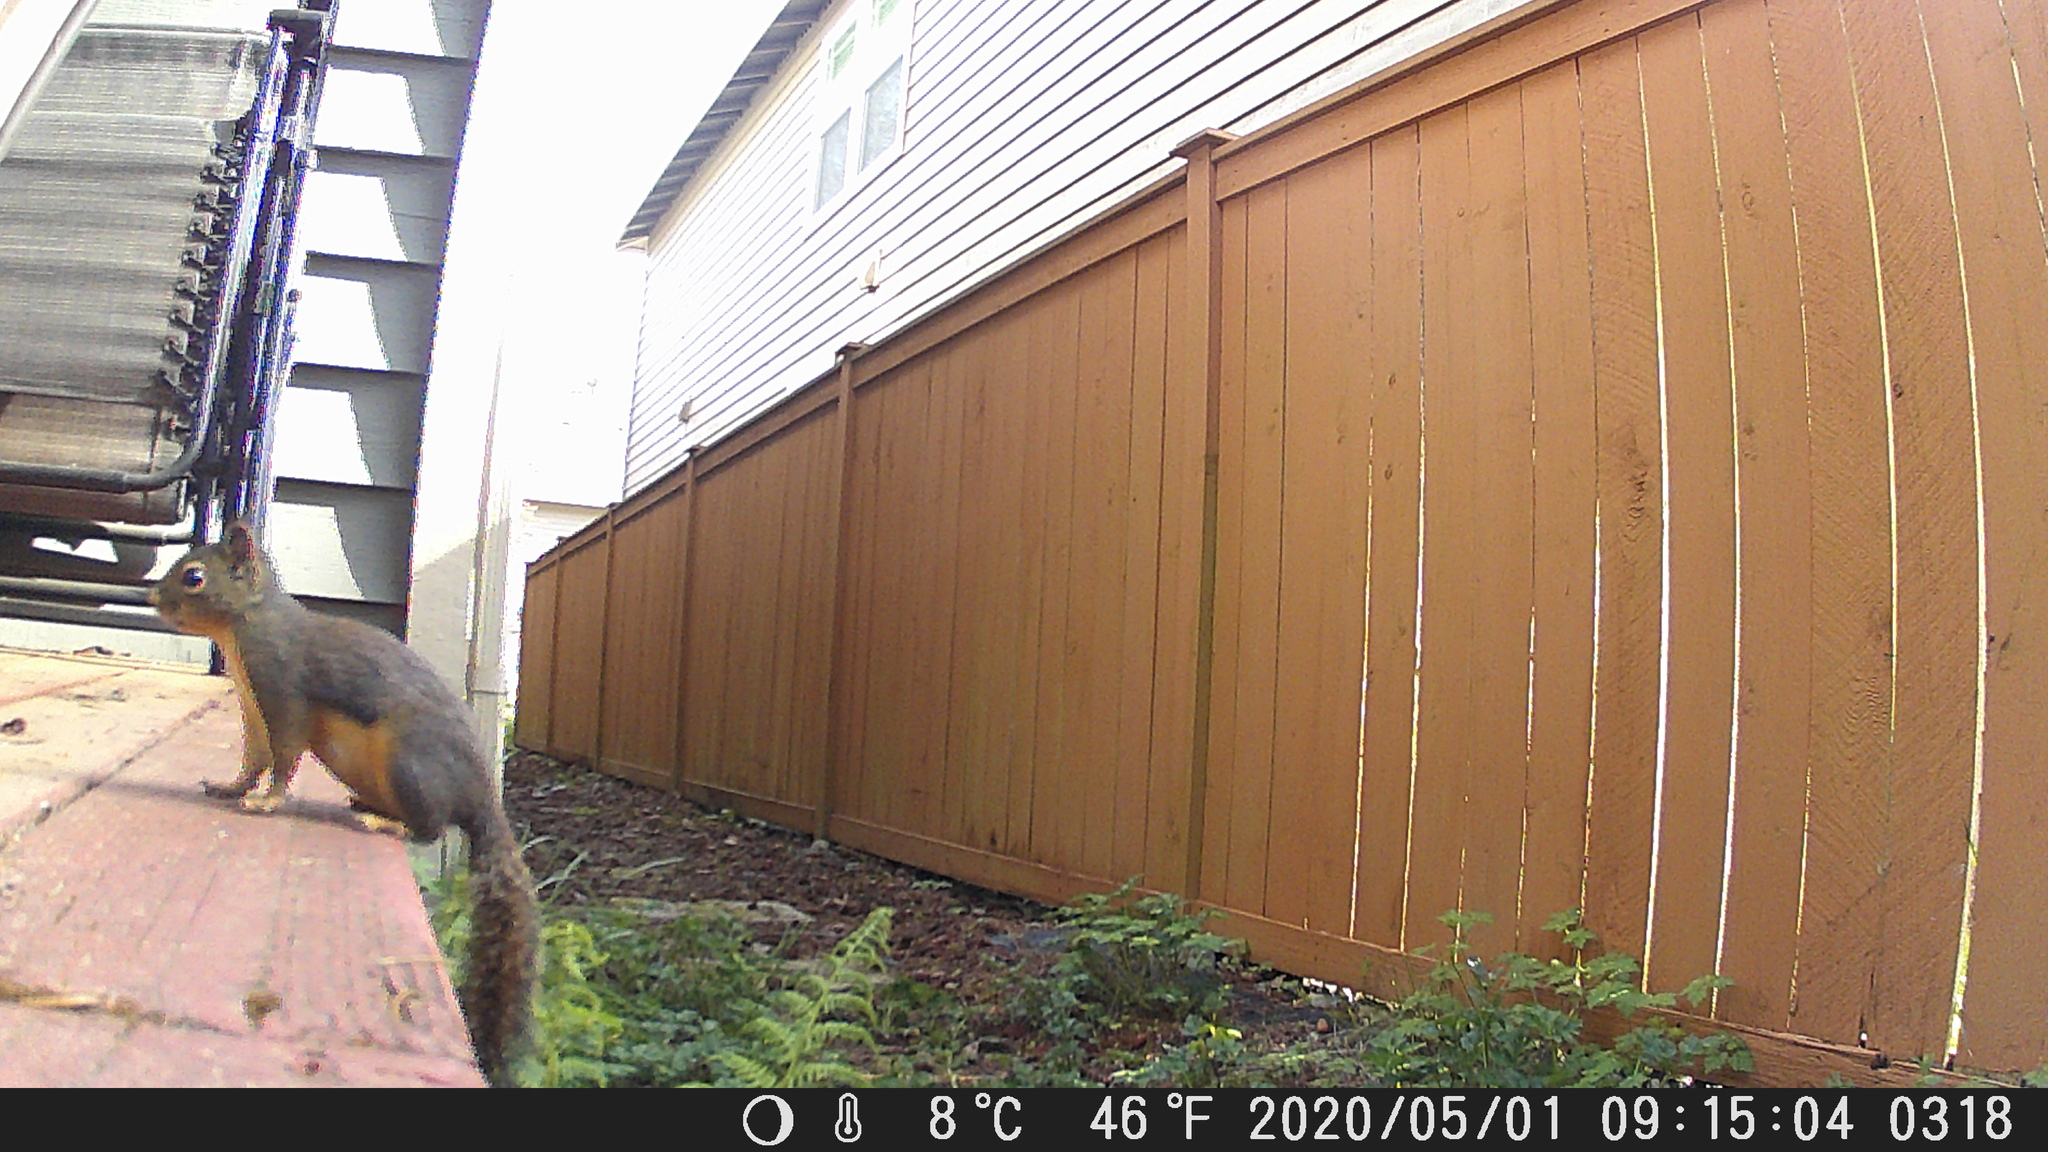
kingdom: Animalia
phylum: Chordata
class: Mammalia
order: Rodentia
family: Sciuridae
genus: Tamiasciurus
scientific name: Tamiasciurus douglasii
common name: Douglas's squirrel
